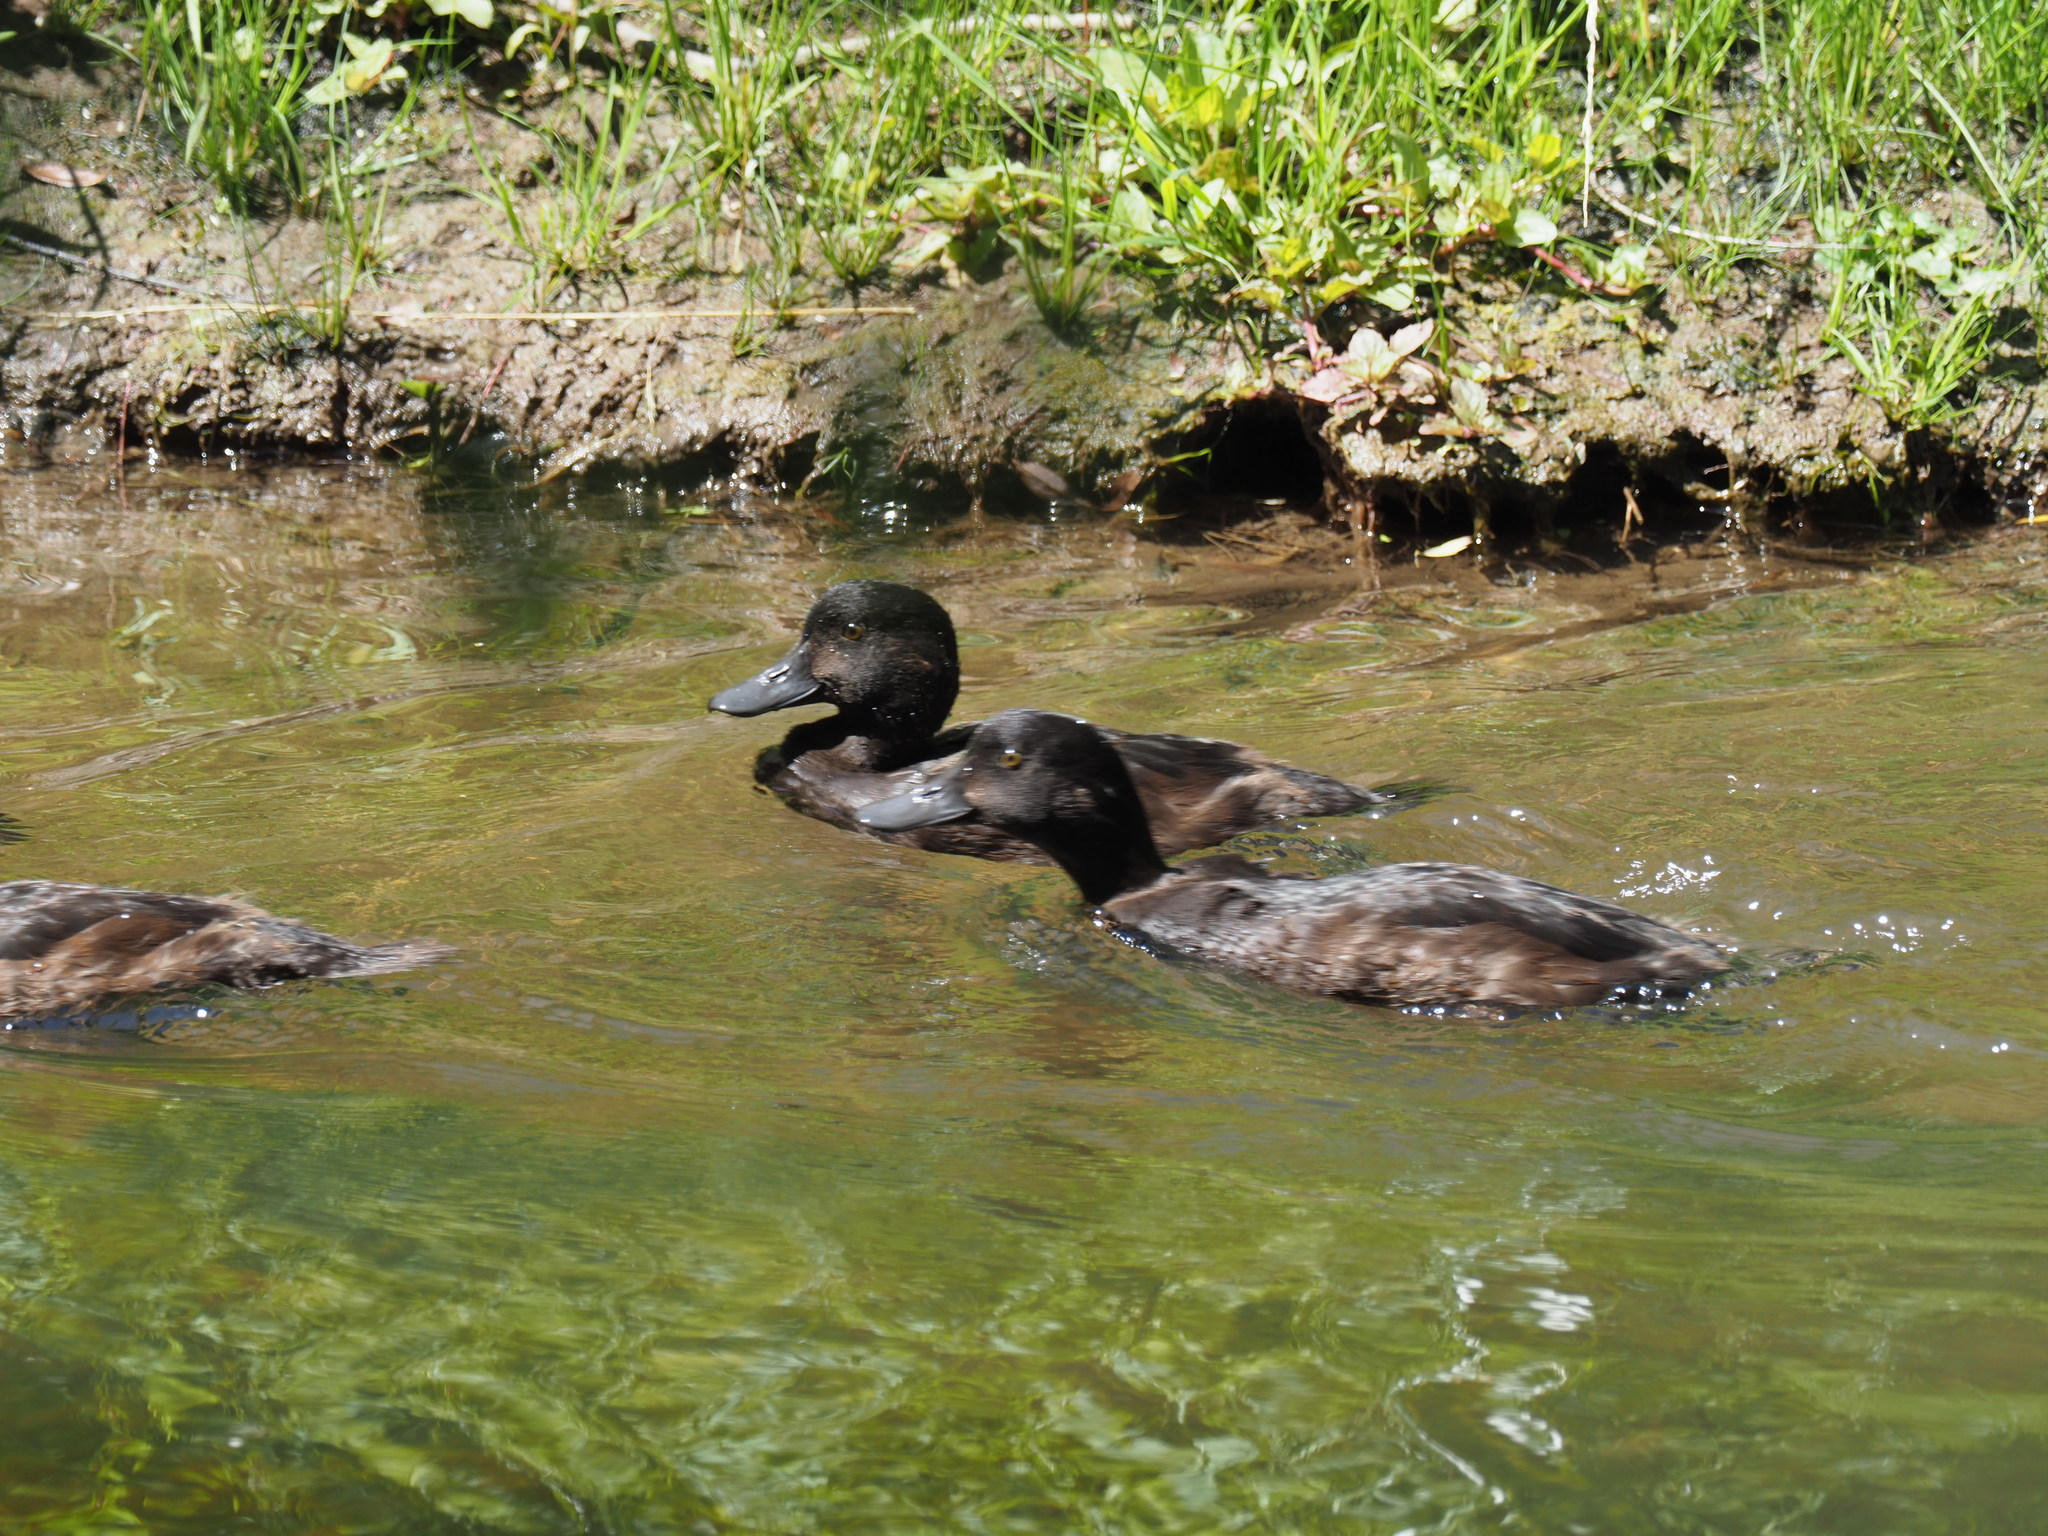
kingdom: Animalia
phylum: Chordata
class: Aves
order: Anseriformes
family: Anatidae
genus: Aythya
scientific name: Aythya novaeseelandiae
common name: New zealand scaup
